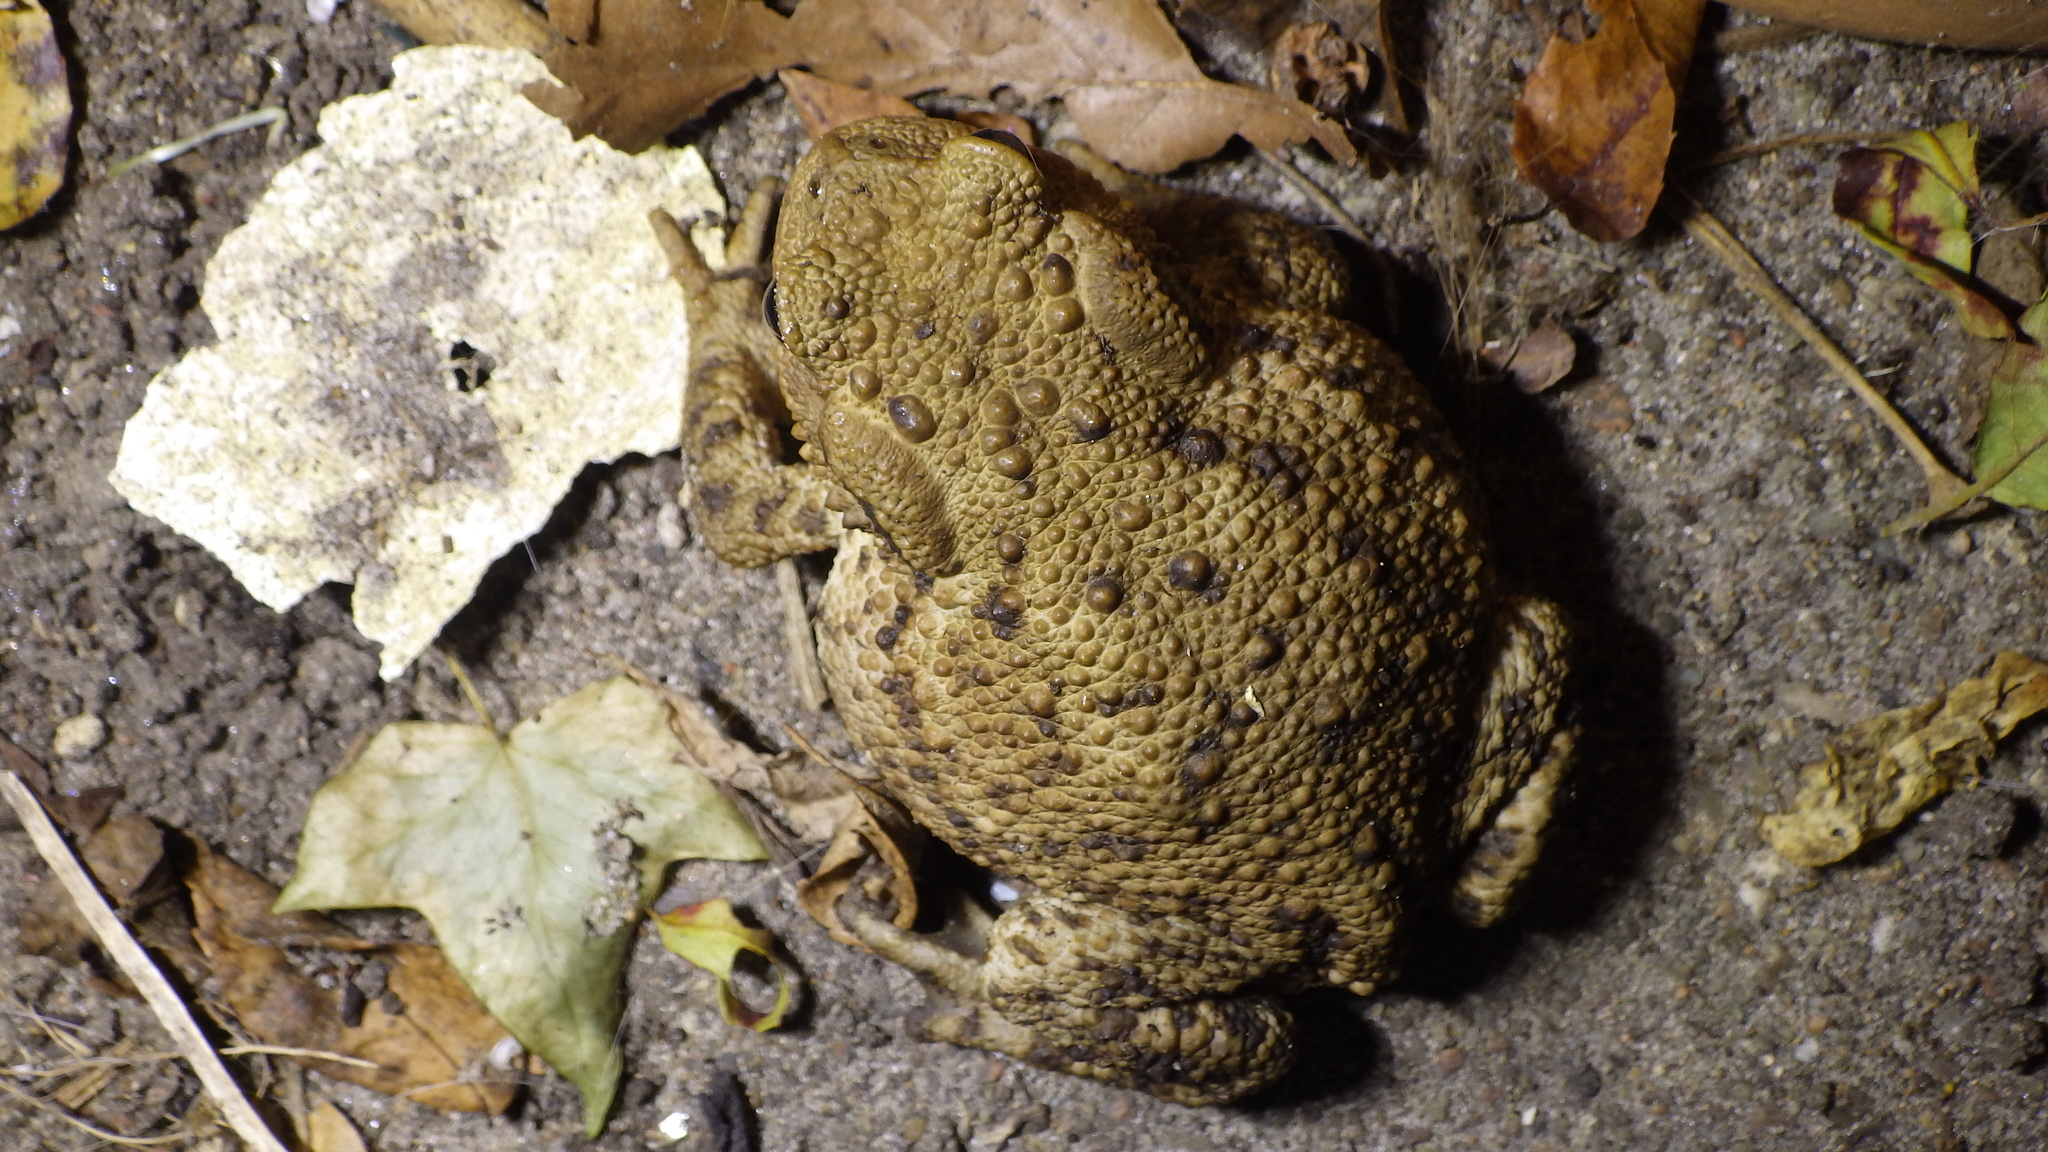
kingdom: Animalia
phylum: Chordata
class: Amphibia
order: Anura
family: Bufonidae
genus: Bufo
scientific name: Bufo bufo
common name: Common toad
